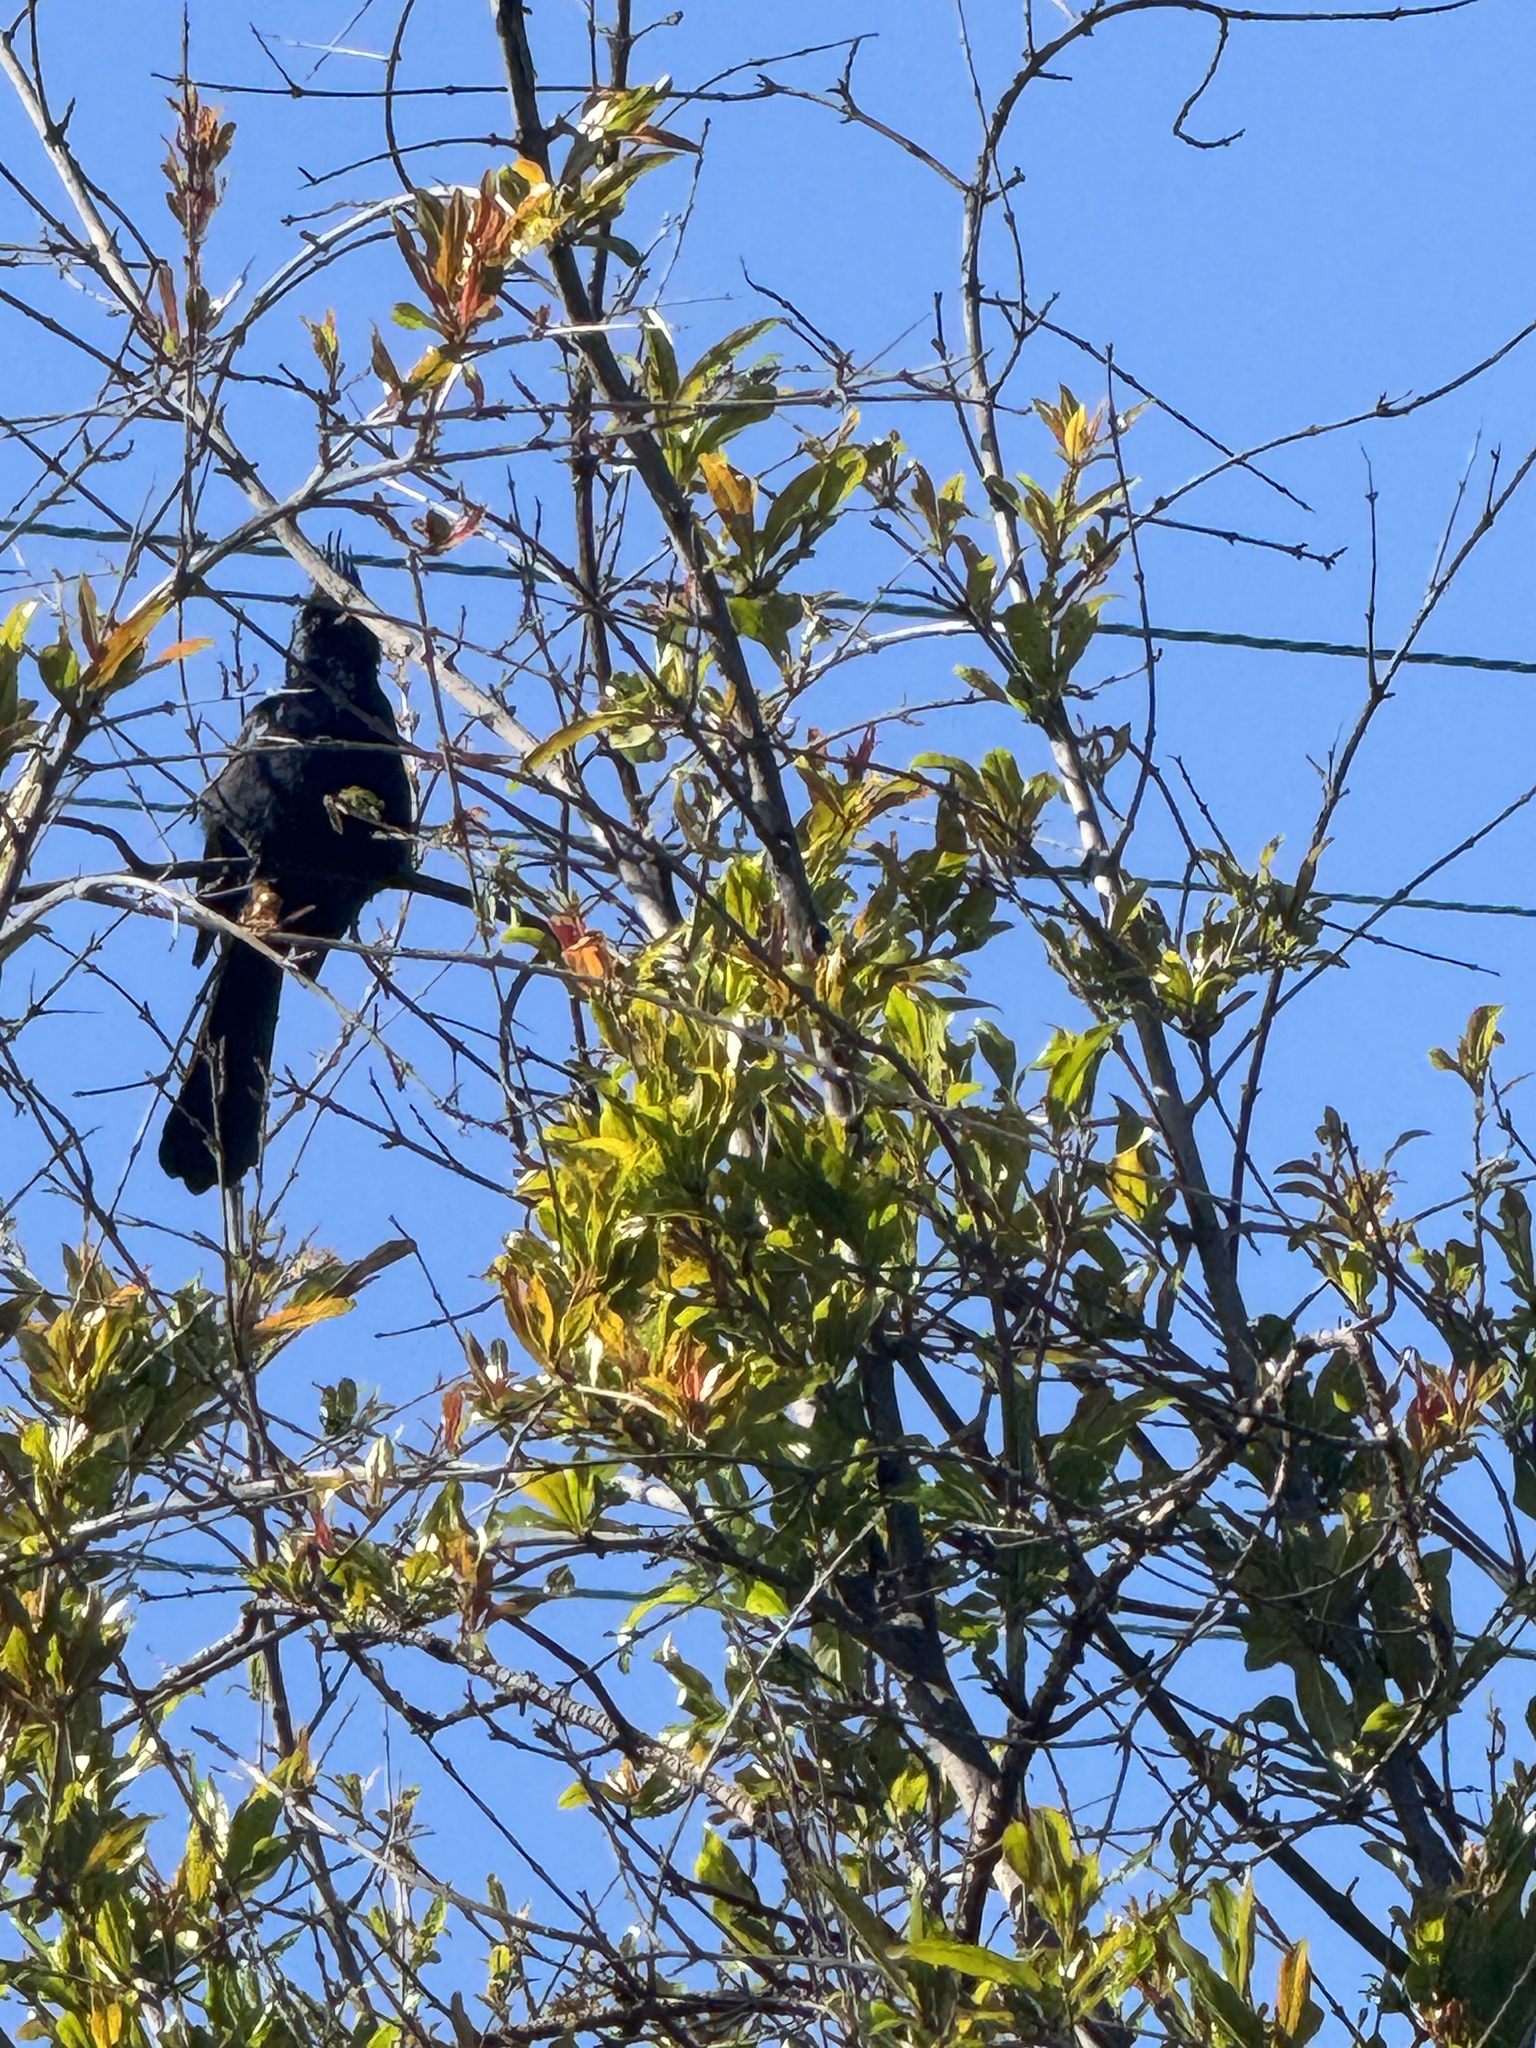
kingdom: Animalia
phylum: Chordata
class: Aves
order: Passeriformes
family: Ptilogonatidae
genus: Phainopepla
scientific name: Phainopepla nitens
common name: Phainopepla
